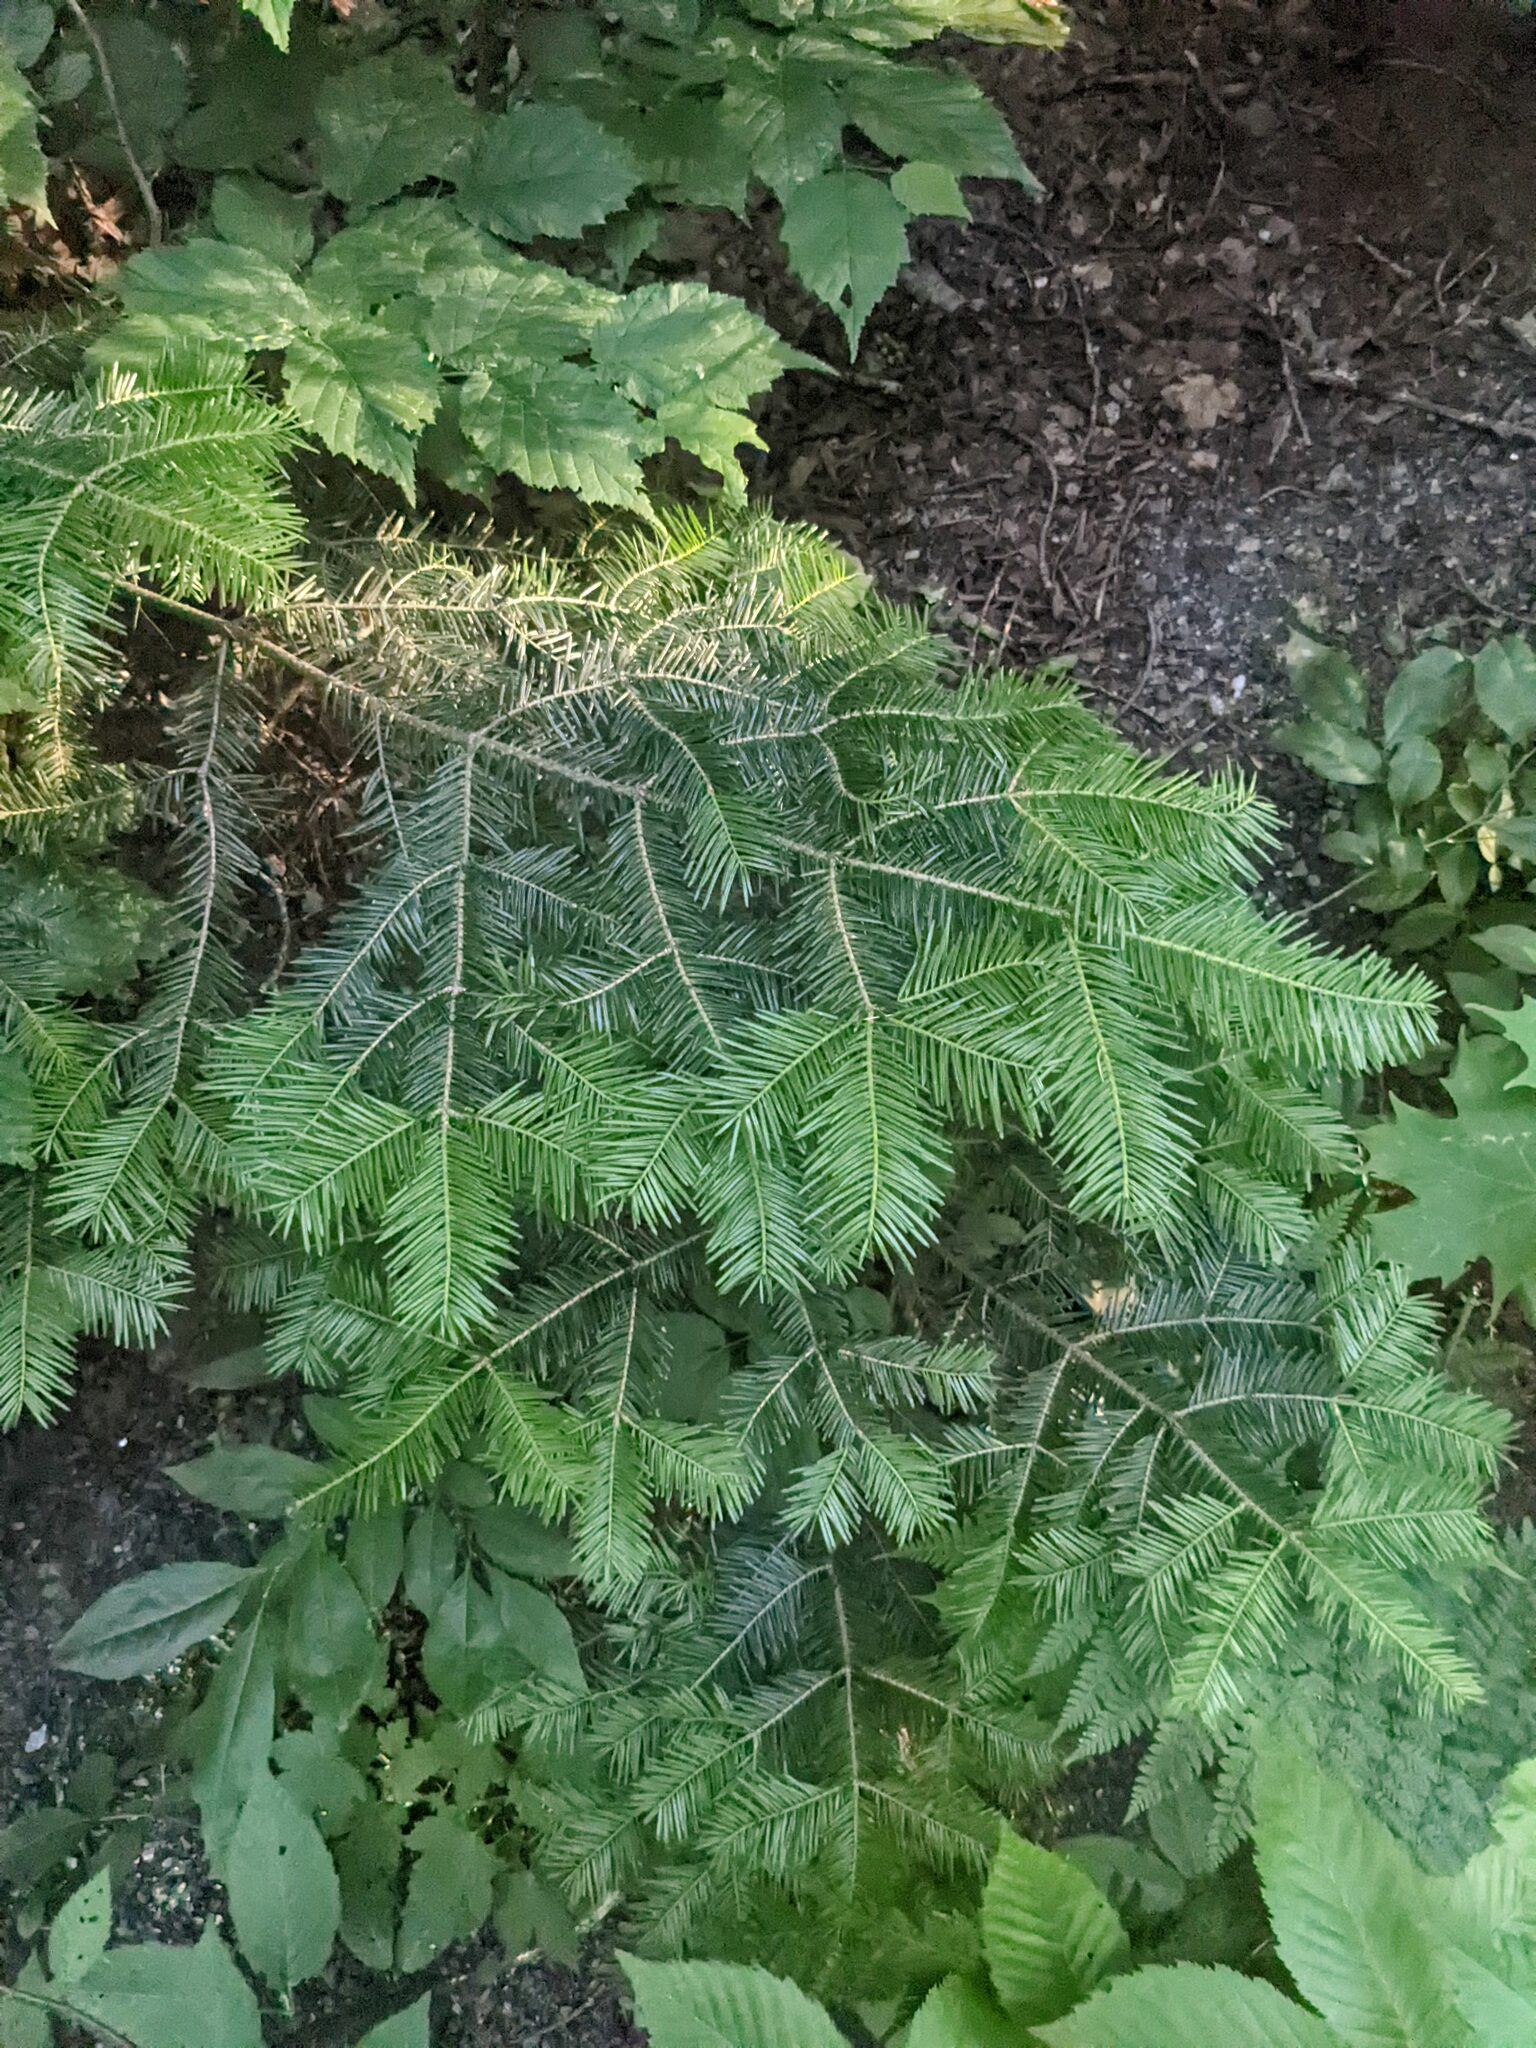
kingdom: Plantae
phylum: Tracheophyta
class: Pinopsida
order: Pinales
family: Pinaceae
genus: Abies
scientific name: Abies balsamea
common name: Balsam fir
